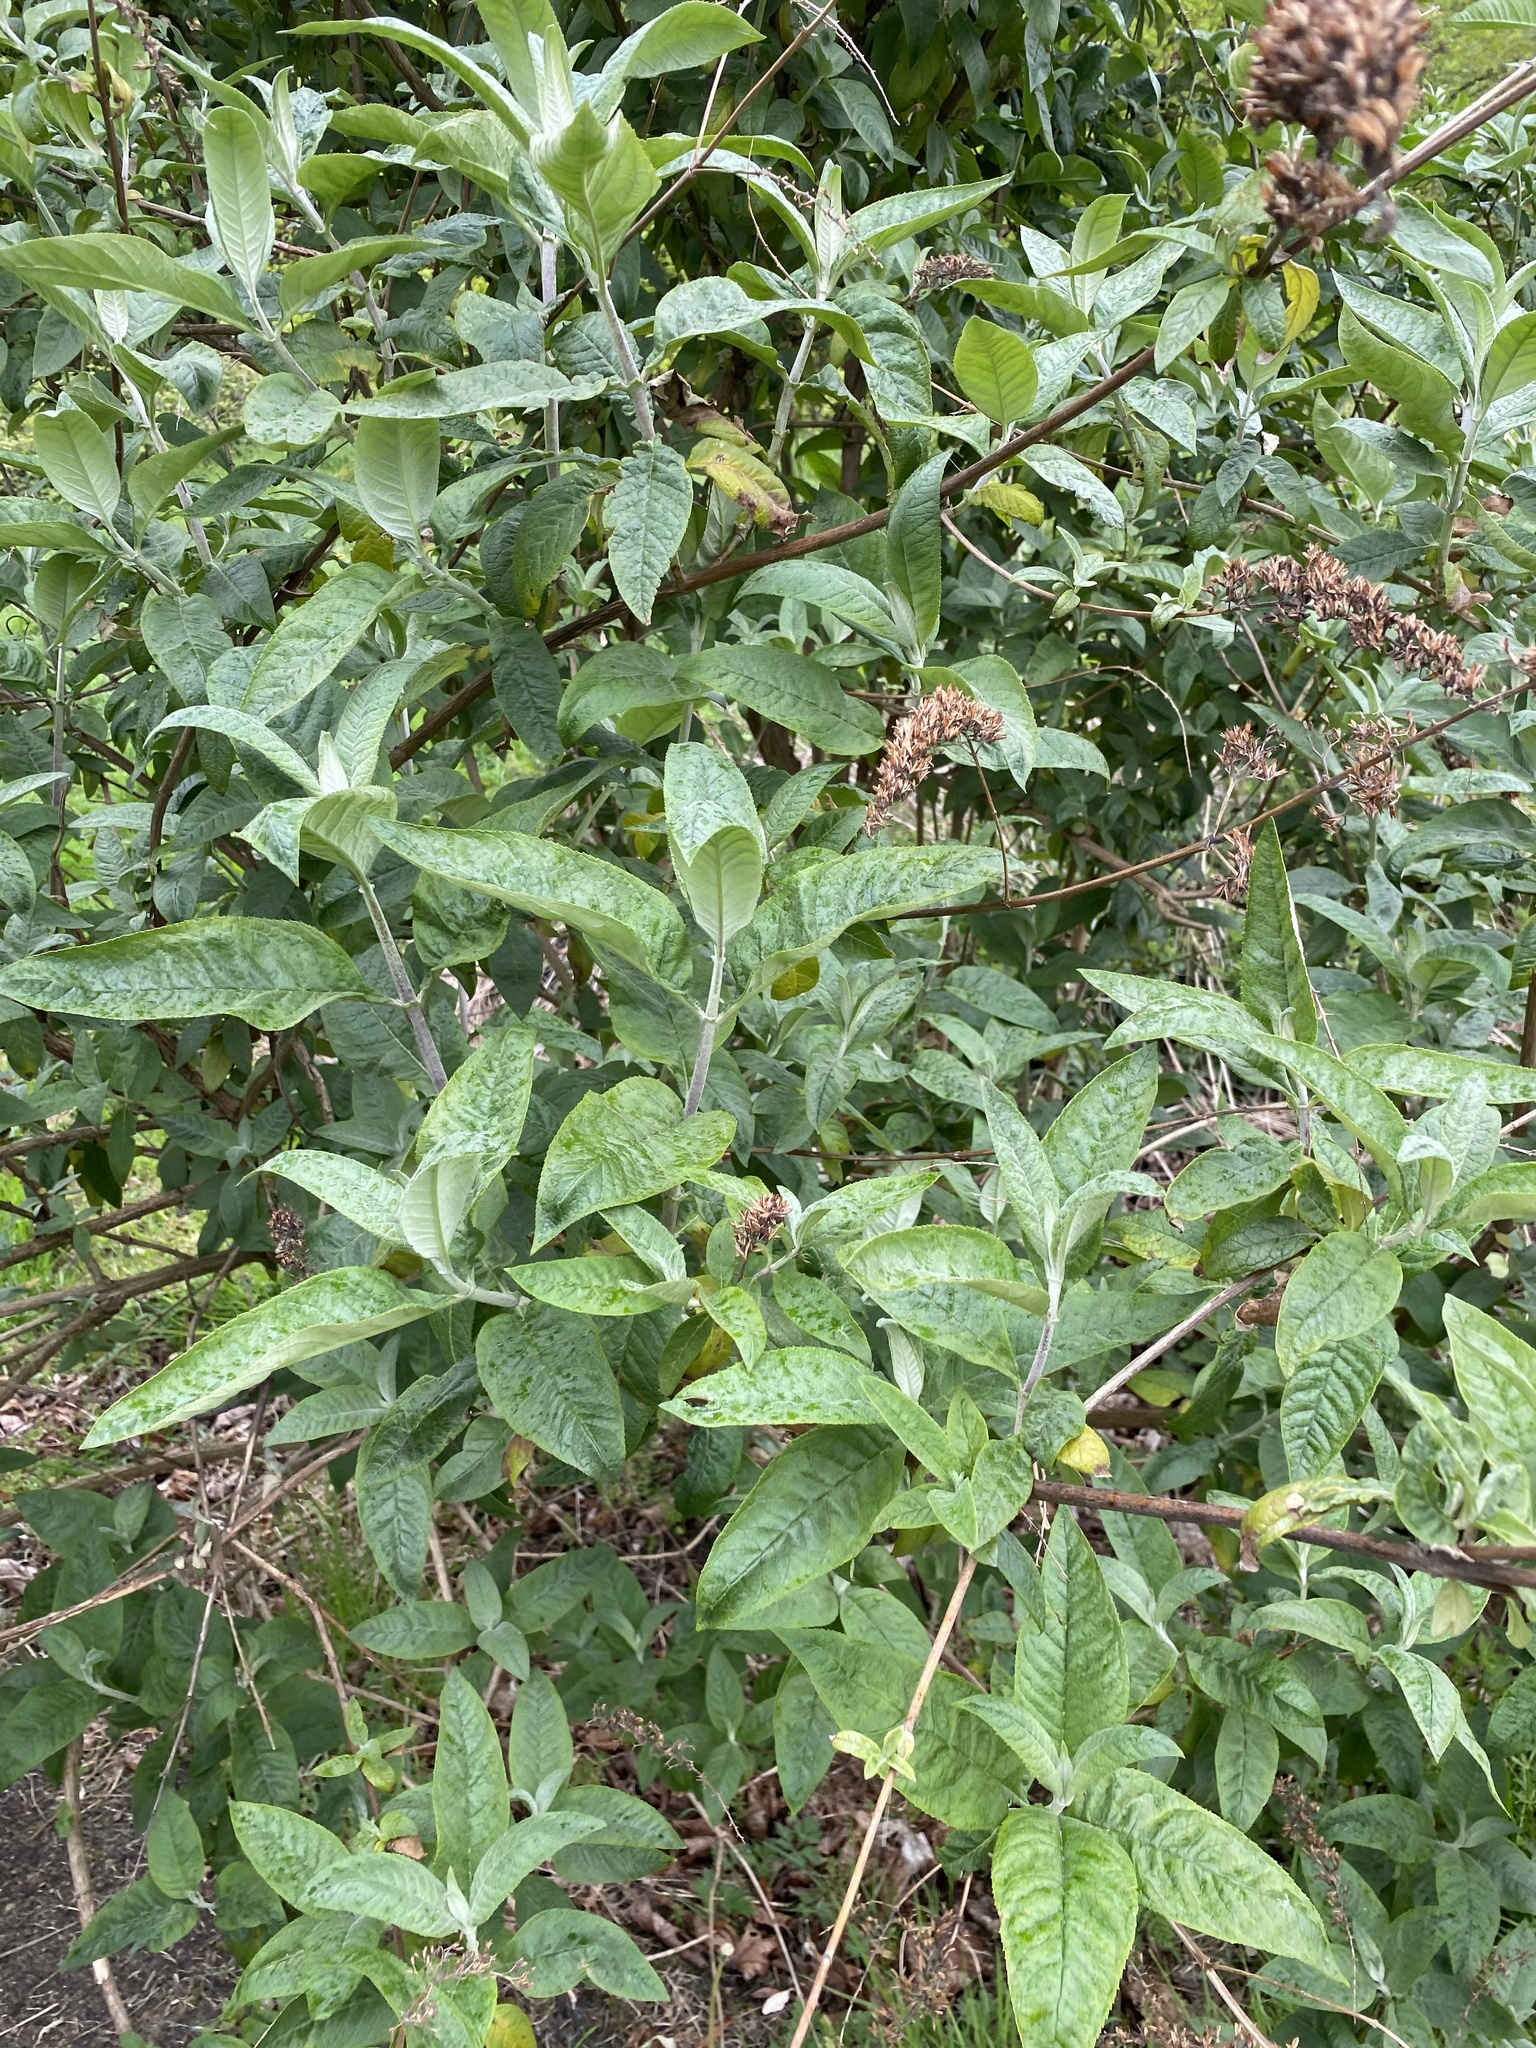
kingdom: Plantae
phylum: Tracheophyta
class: Magnoliopsida
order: Lamiales
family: Scrophulariaceae
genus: Buddleja
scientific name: Buddleja davidii
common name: Butterfly-bush
